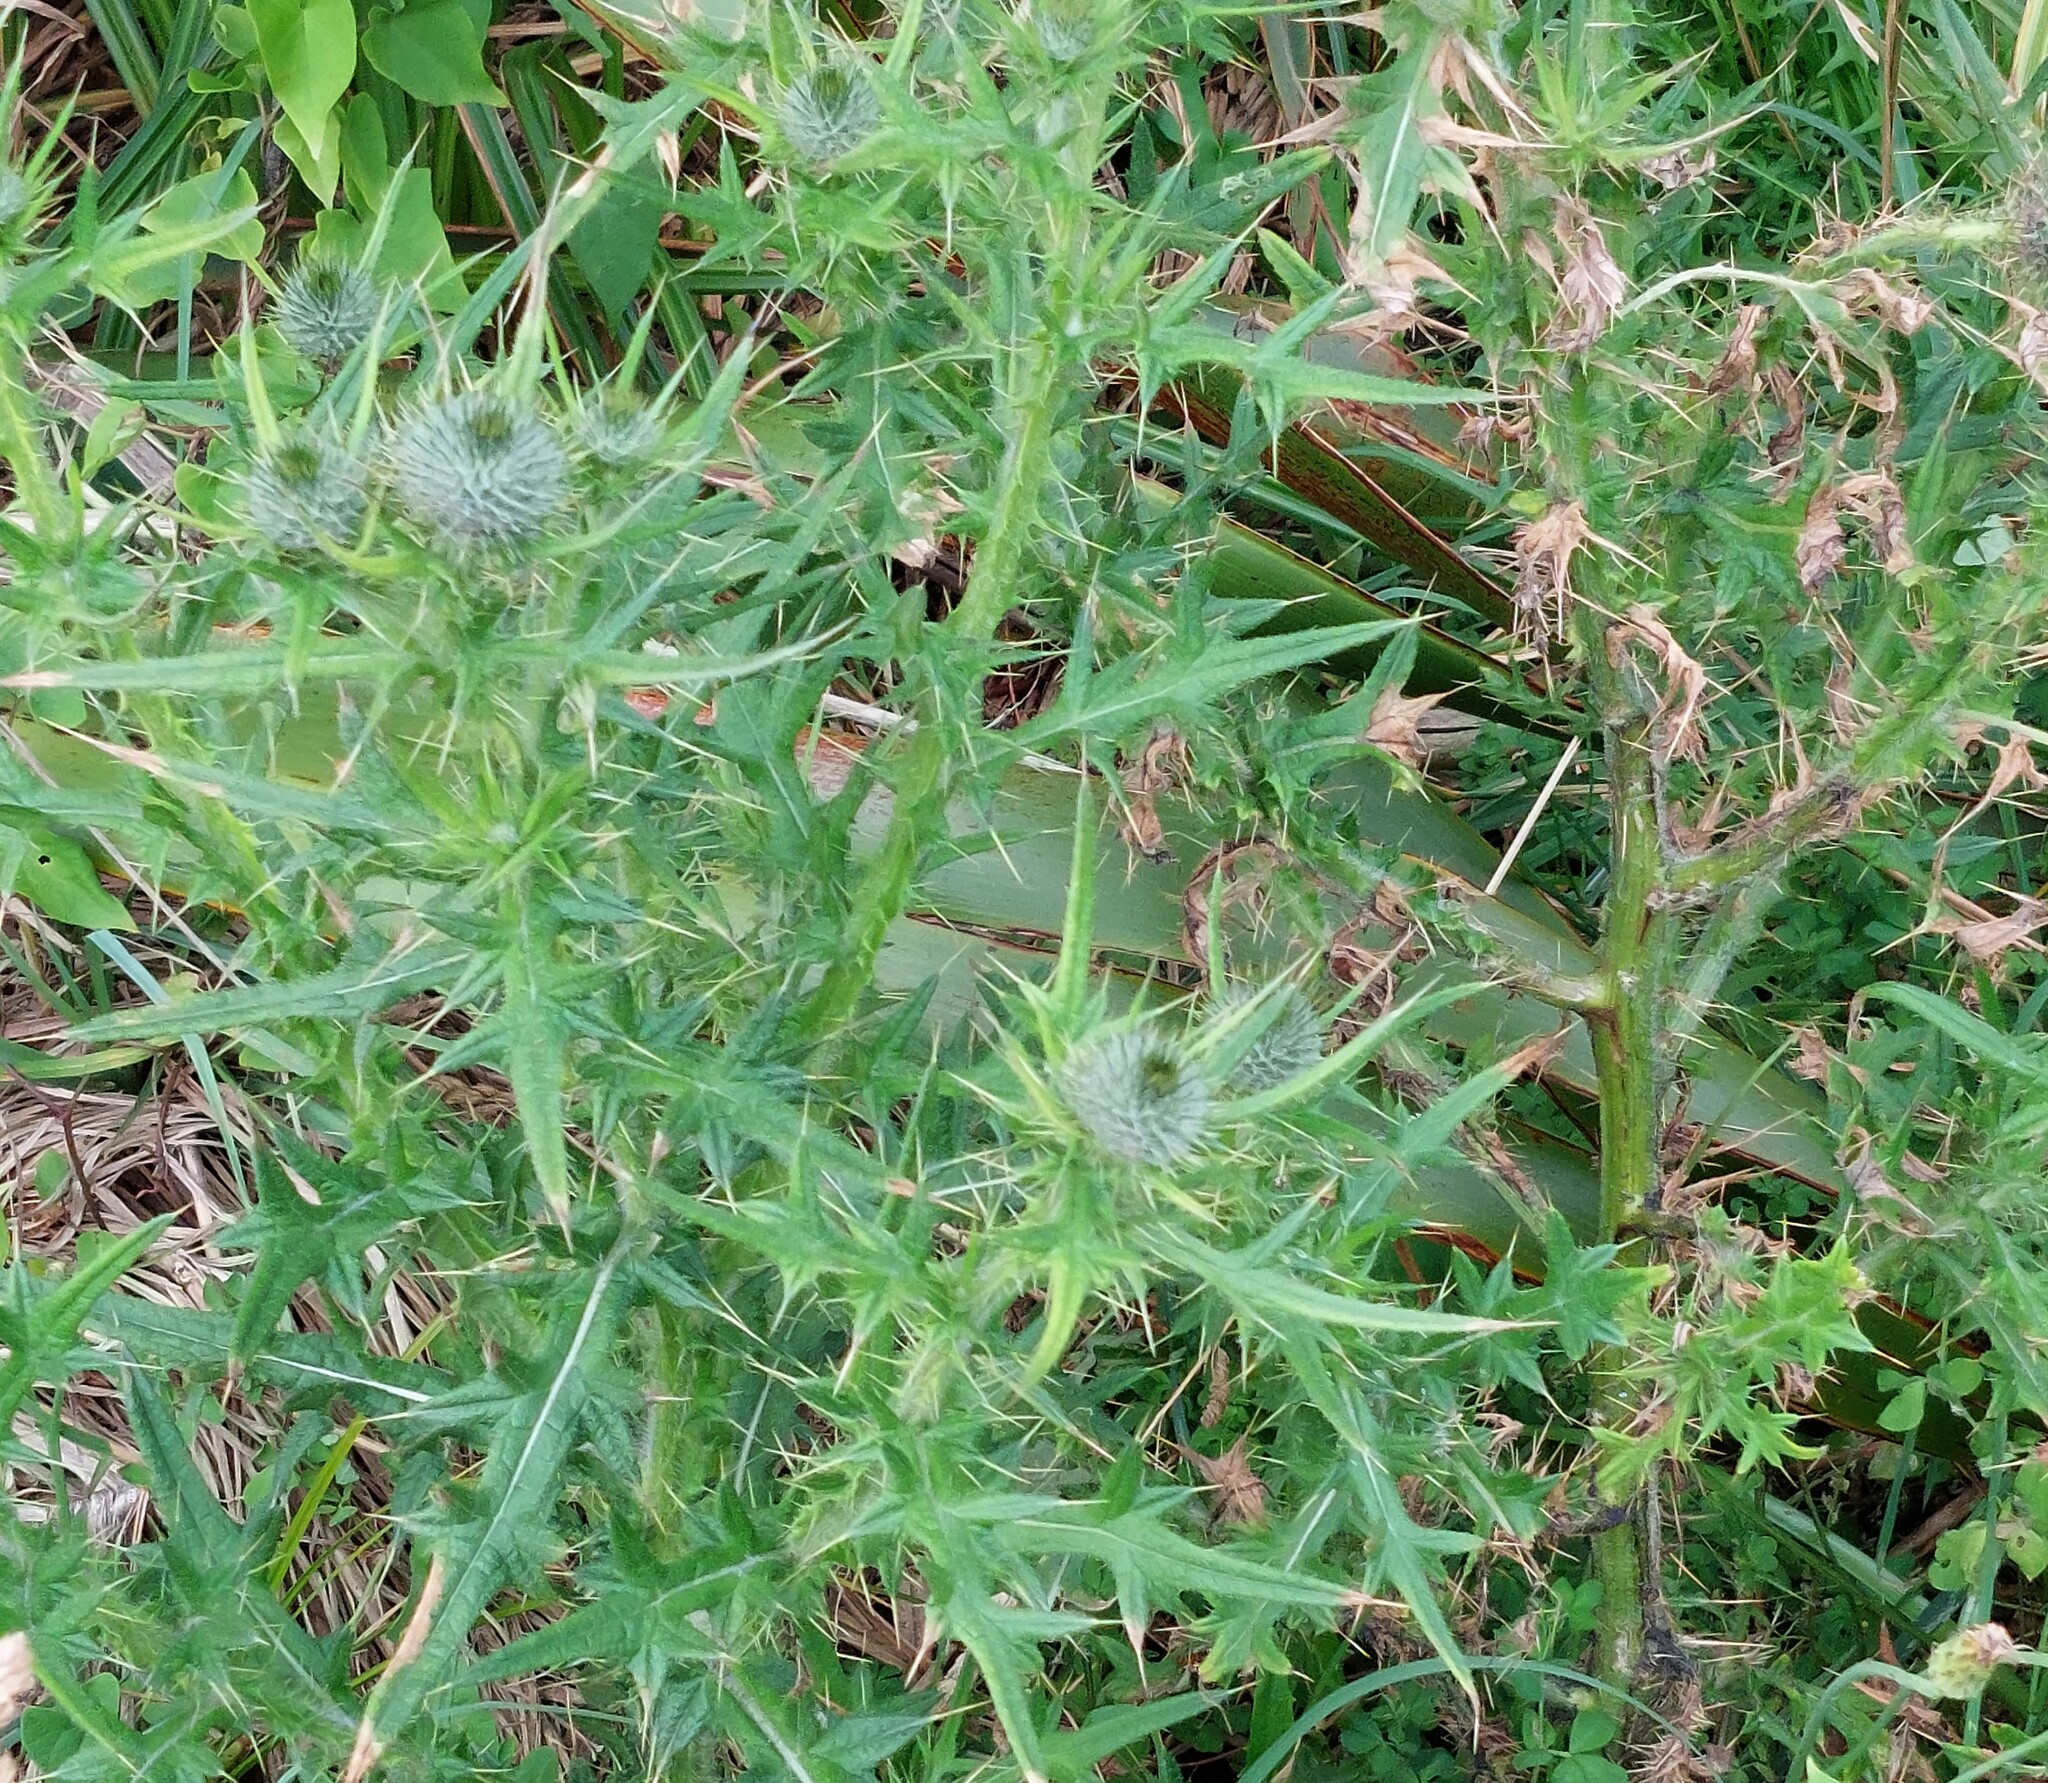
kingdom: Plantae
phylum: Tracheophyta
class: Magnoliopsida
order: Asterales
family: Asteraceae
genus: Cirsium
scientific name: Cirsium vulgare
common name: Bull thistle
